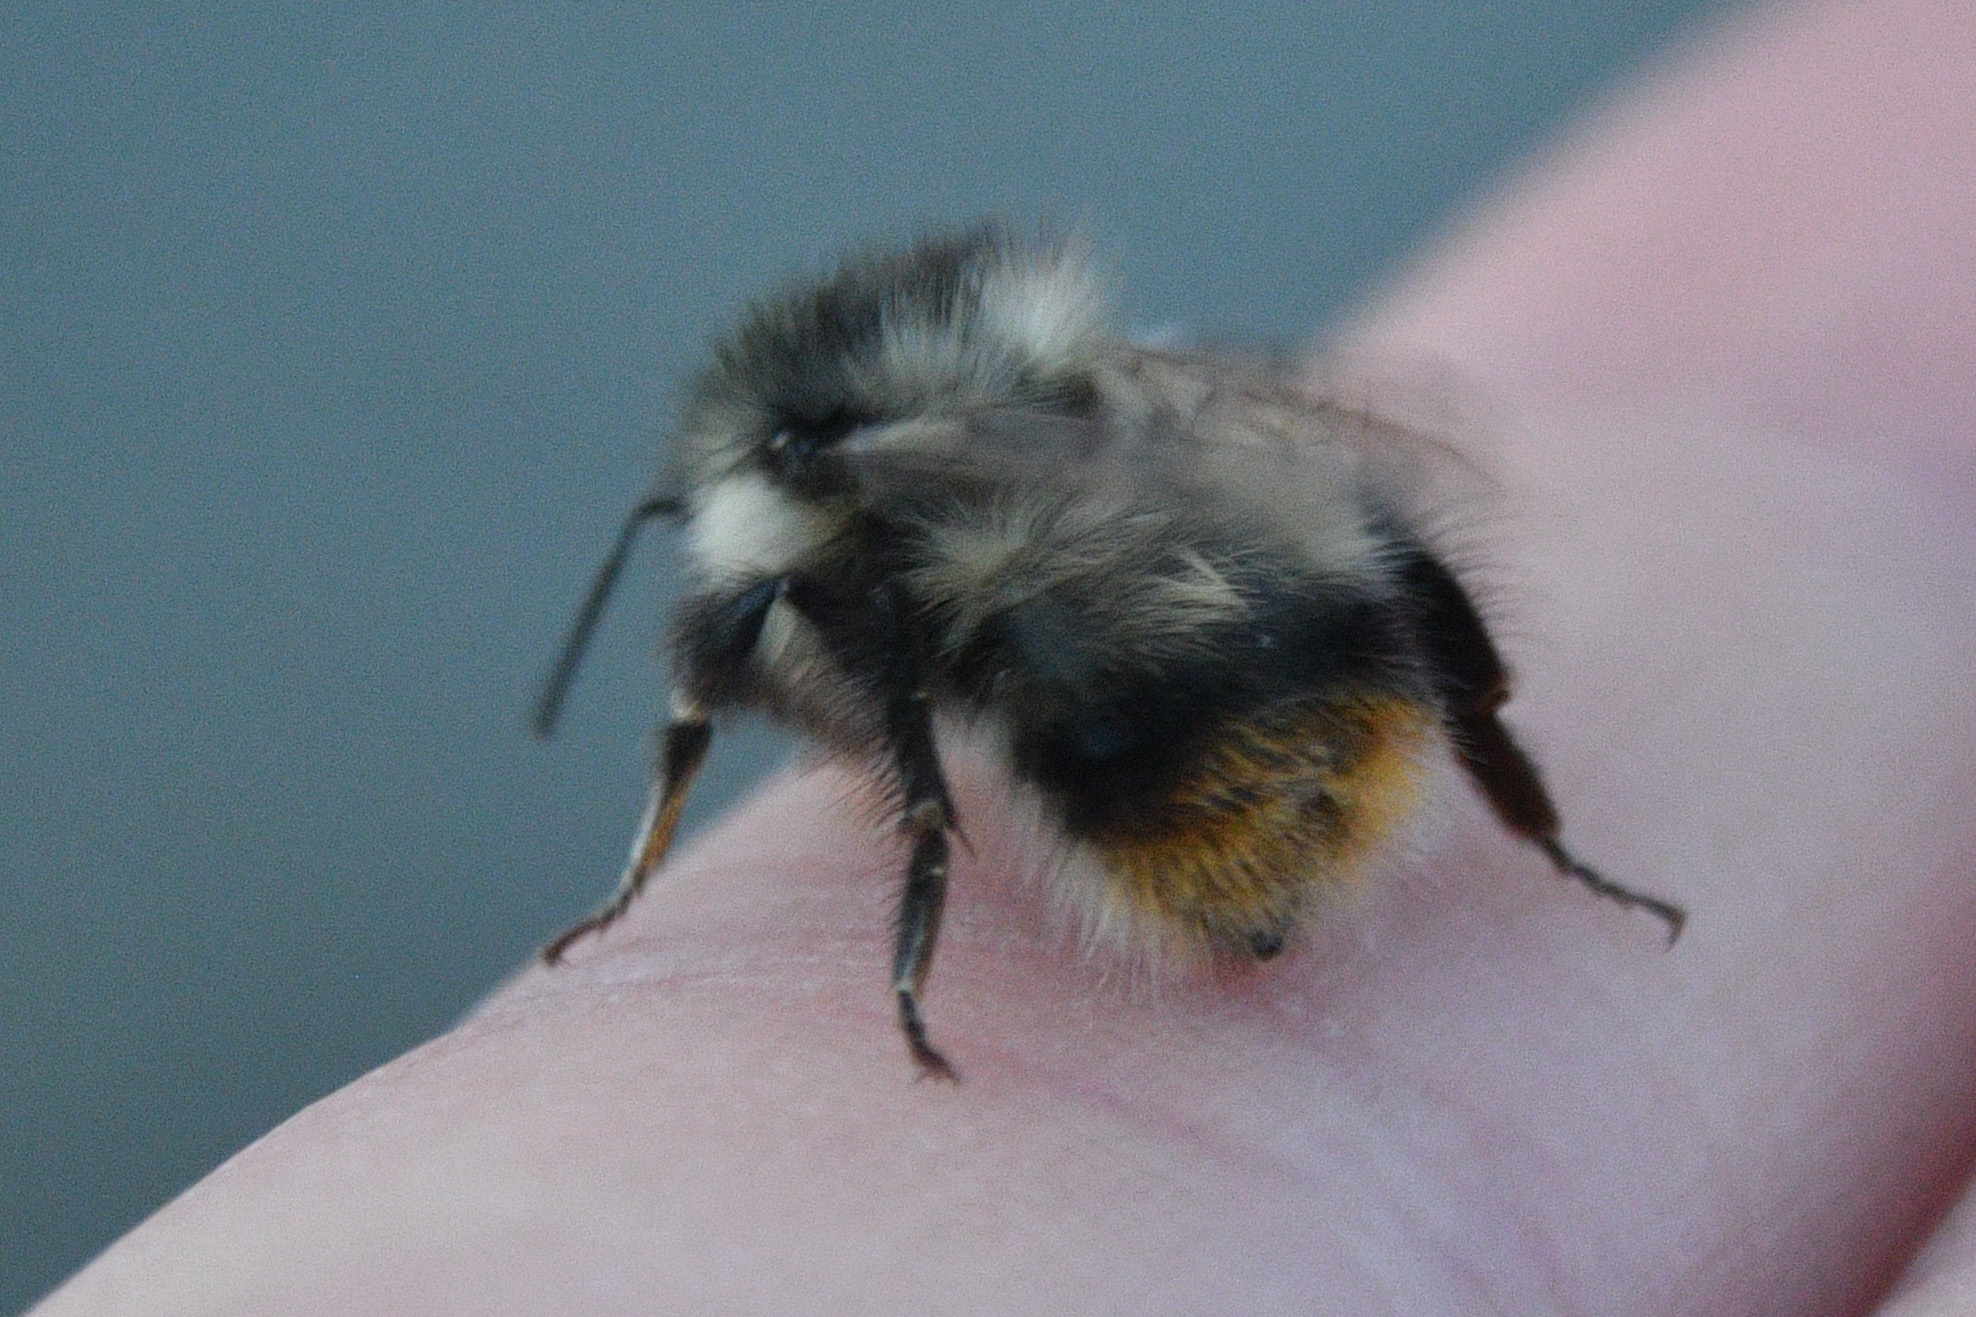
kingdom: Animalia
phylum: Arthropoda
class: Insecta
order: Hymenoptera
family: Apidae
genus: Bombus
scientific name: Bombus mixtus
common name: Fuzzy-horned bumble bee
